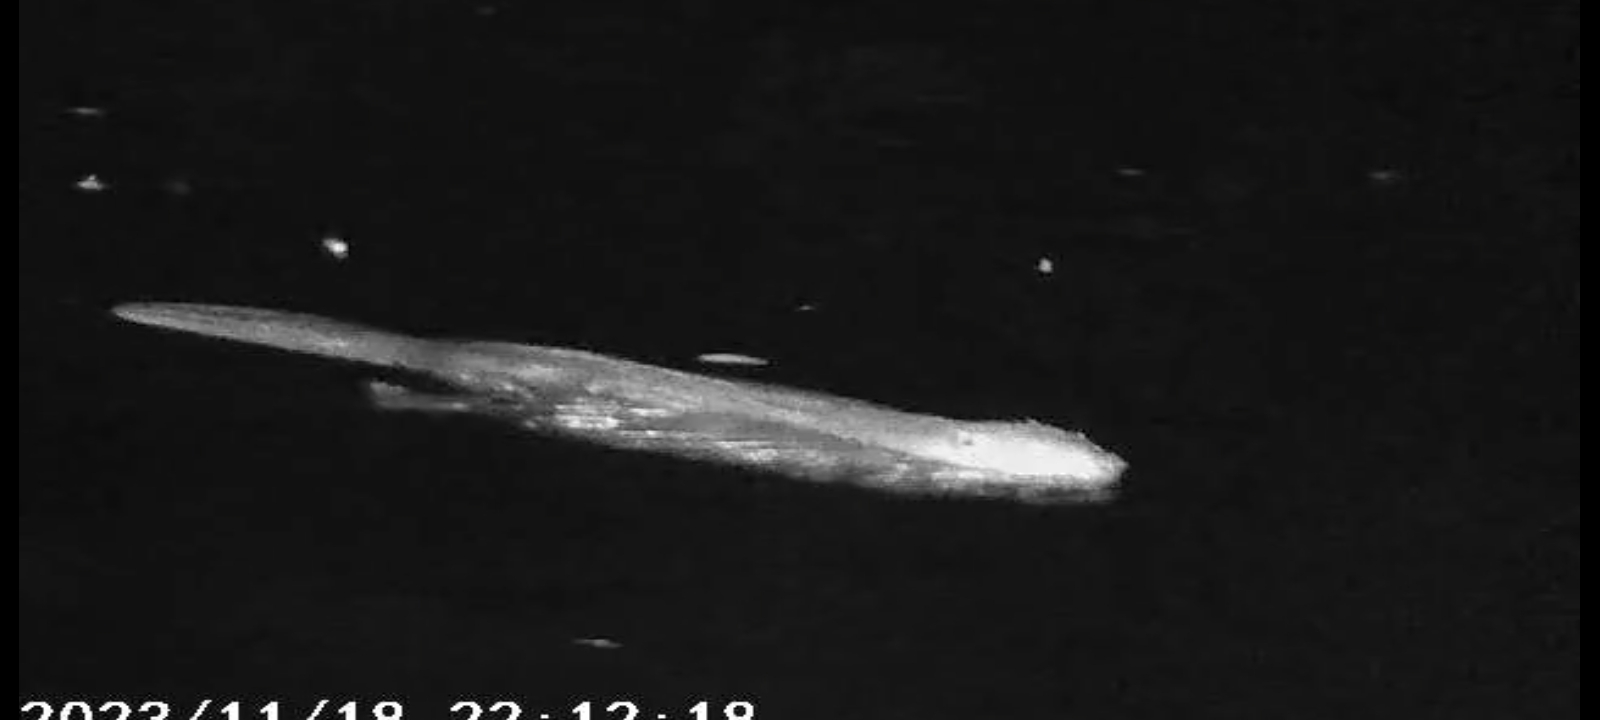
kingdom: Animalia
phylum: Chordata
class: Mammalia
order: Rodentia
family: Castoridae
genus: Castor
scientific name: Castor fiber
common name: Eurasian beaver
